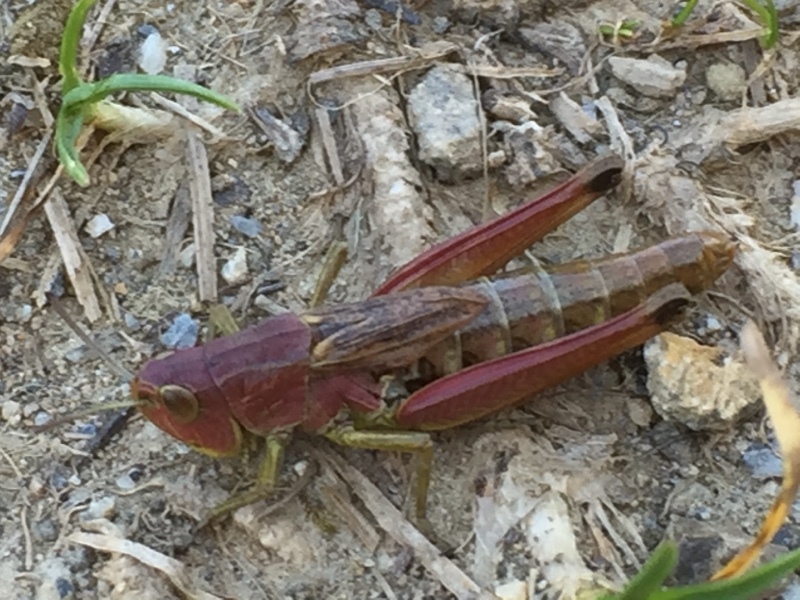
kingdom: Animalia
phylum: Arthropoda
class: Insecta
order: Orthoptera
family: Acrididae
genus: Pseudochorthippus
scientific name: Pseudochorthippus parallelus
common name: Meadow grasshopper
